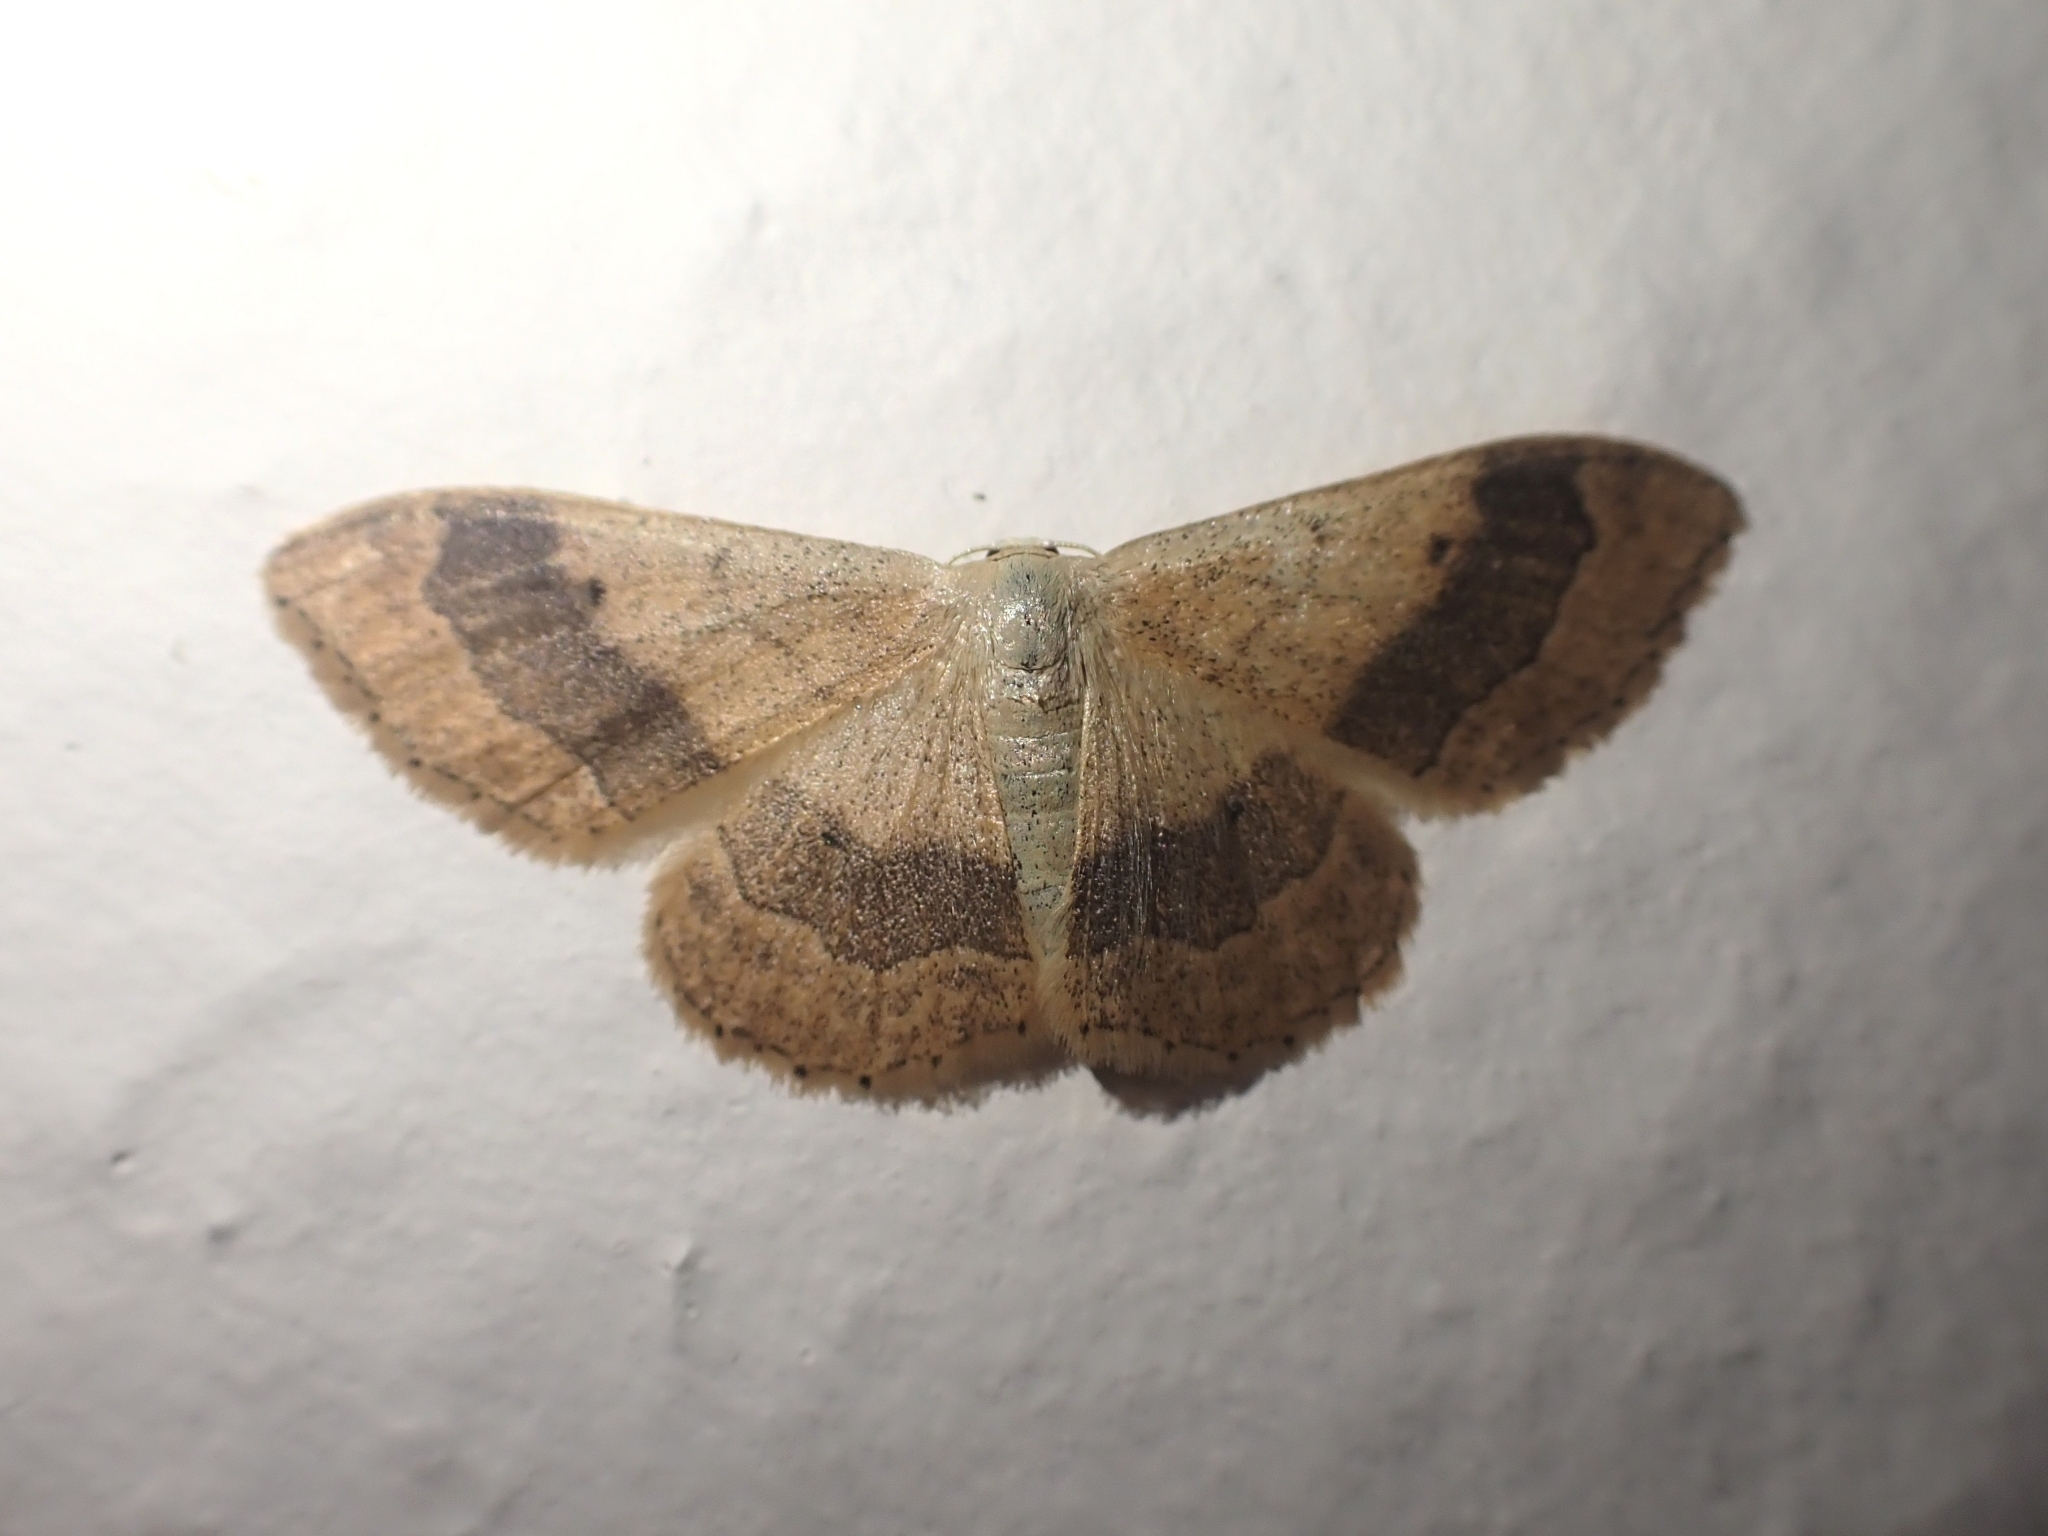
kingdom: Animalia
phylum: Arthropoda
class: Insecta
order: Lepidoptera
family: Geometridae
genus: Idaea
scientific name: Idaea aversata
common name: Riband wave
